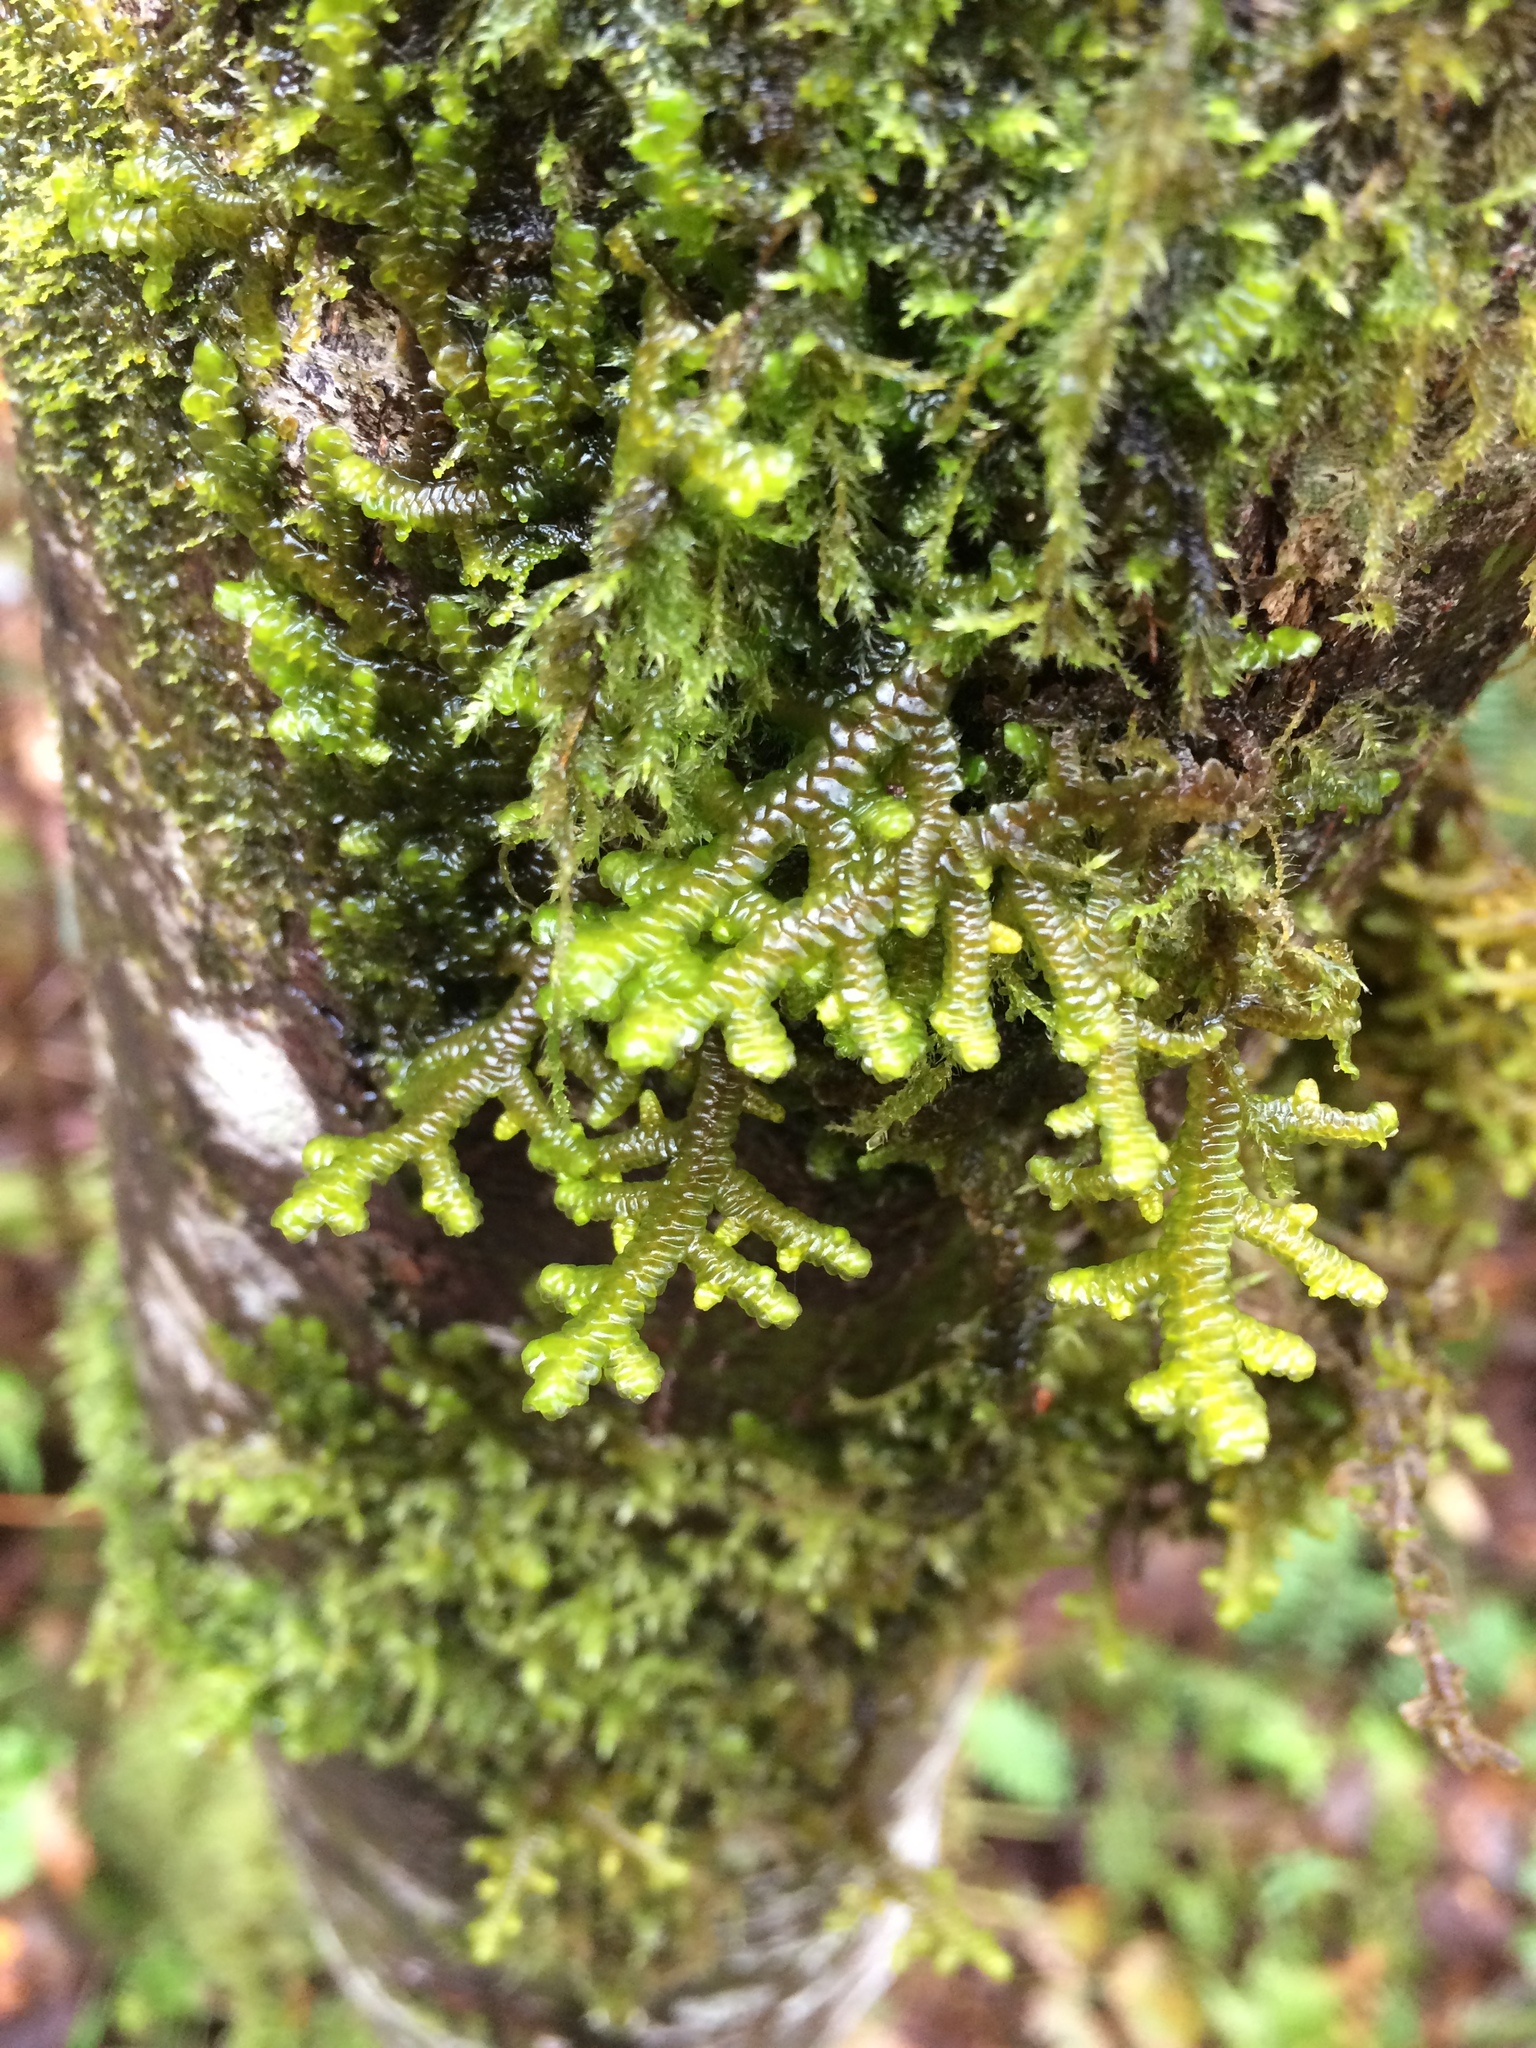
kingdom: Plantae
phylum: Marchantiophyta
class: Jungermanniopsida
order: Porellales
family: Porellaceae
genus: Porella
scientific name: Porella navicularis
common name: Tree ruffle liverwort
